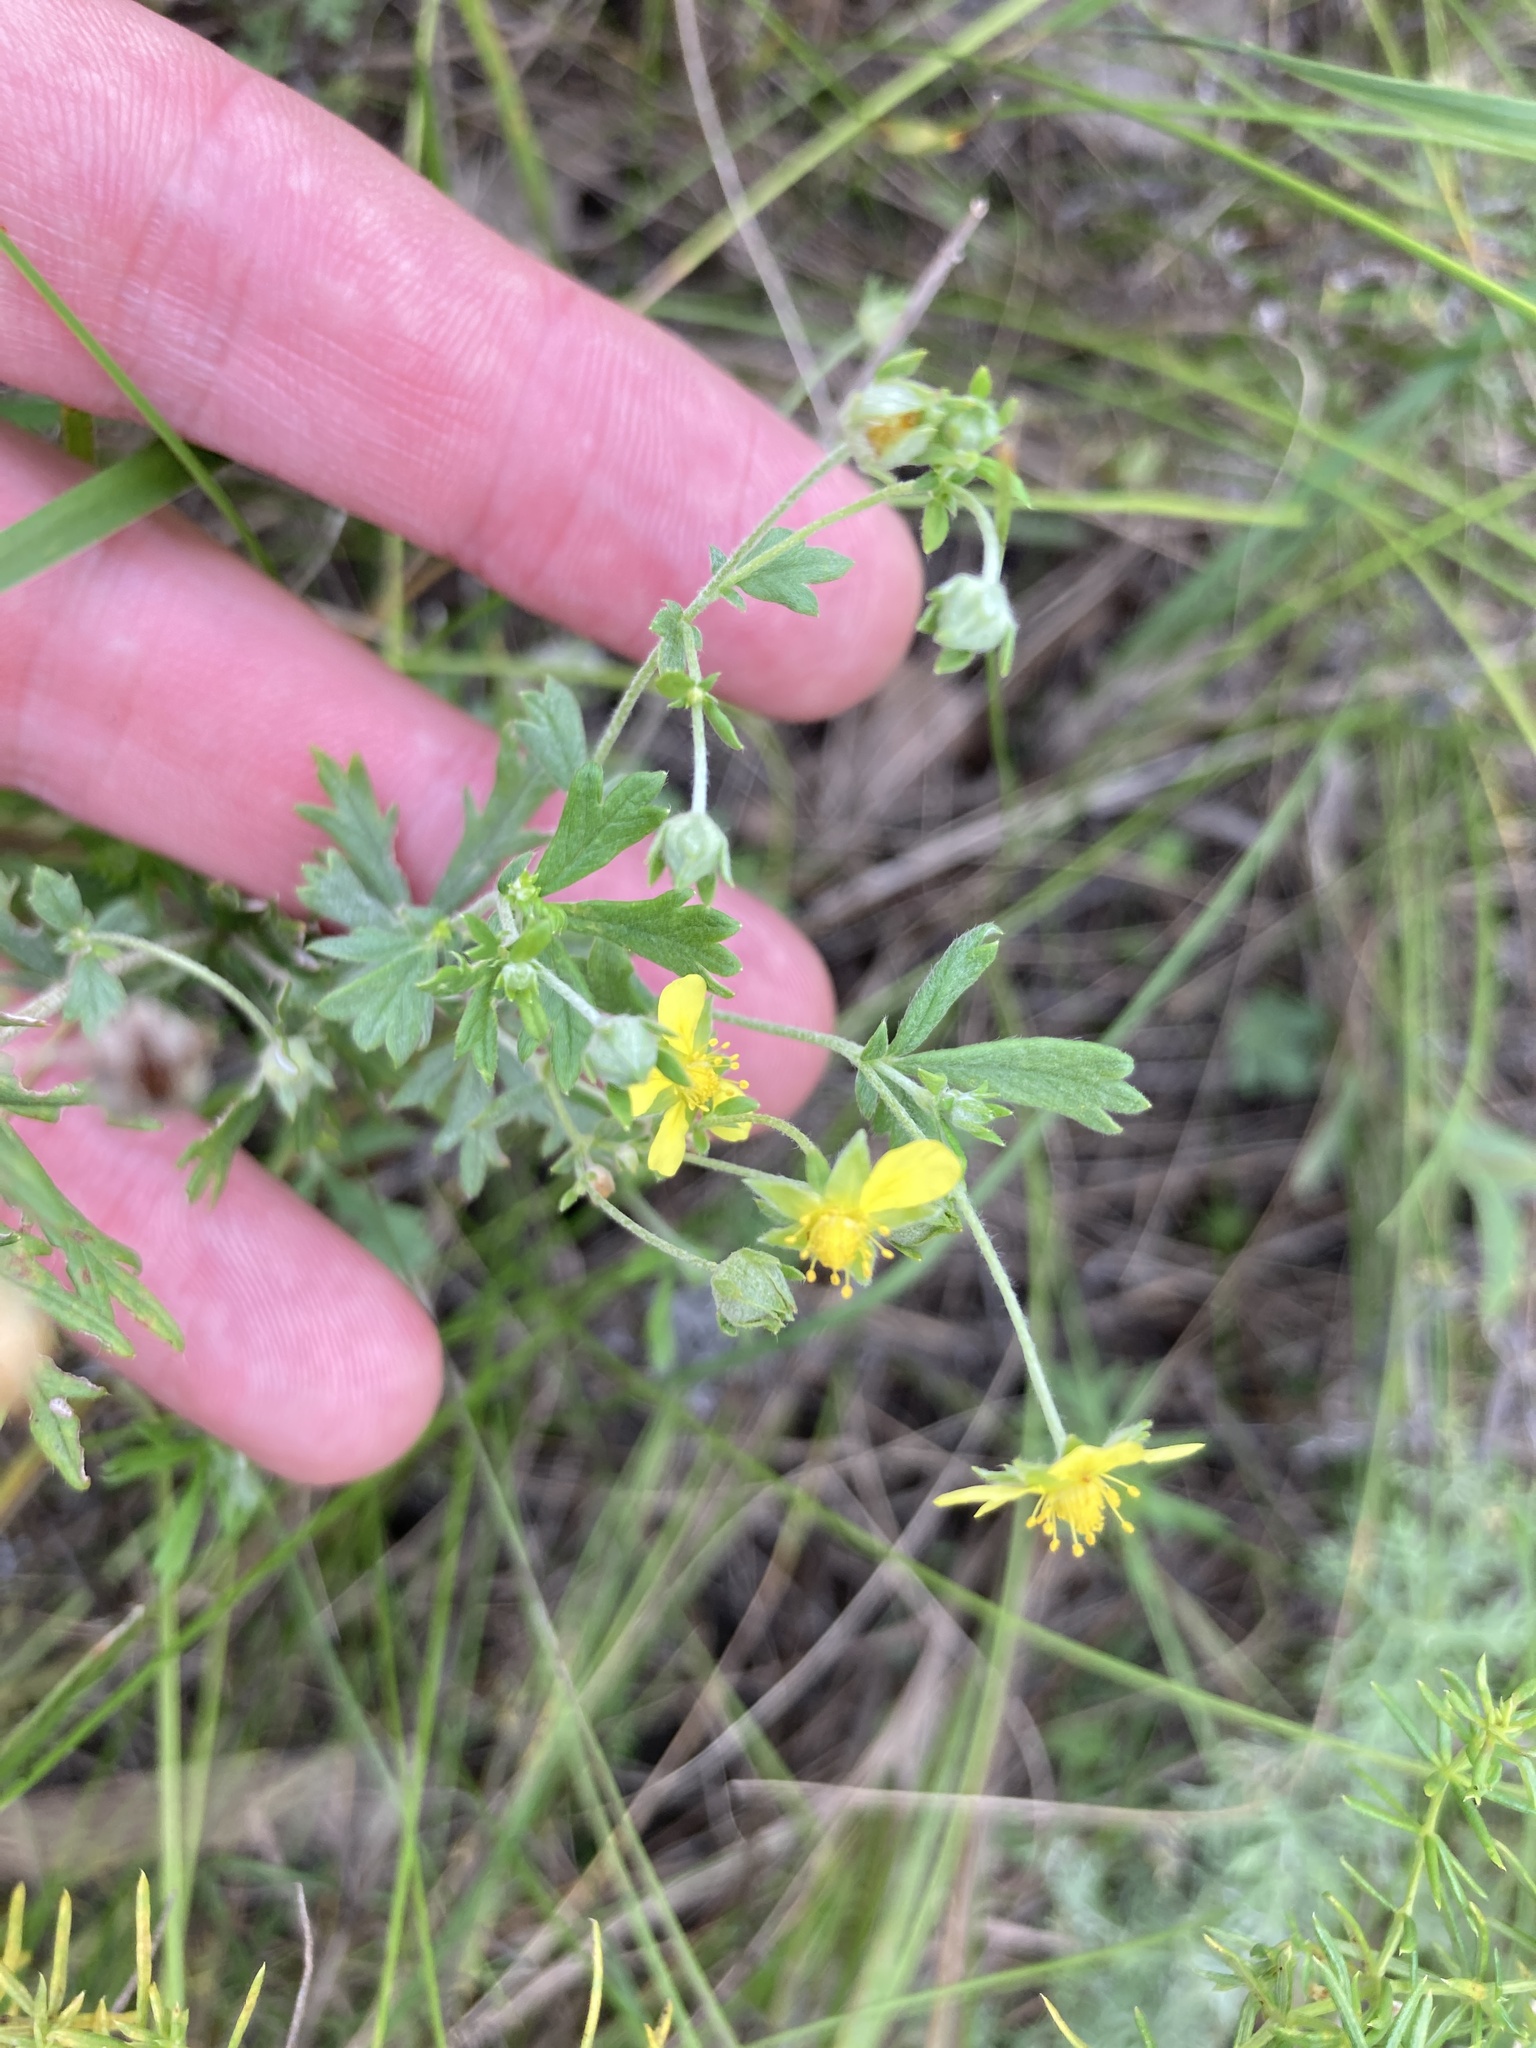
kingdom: Plantae
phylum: Tracheophyta
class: Magnoliopsida
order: Rosales
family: Rosaceae
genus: Potentilla
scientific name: Potentilla argentea
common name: Hoary cinquefoil
